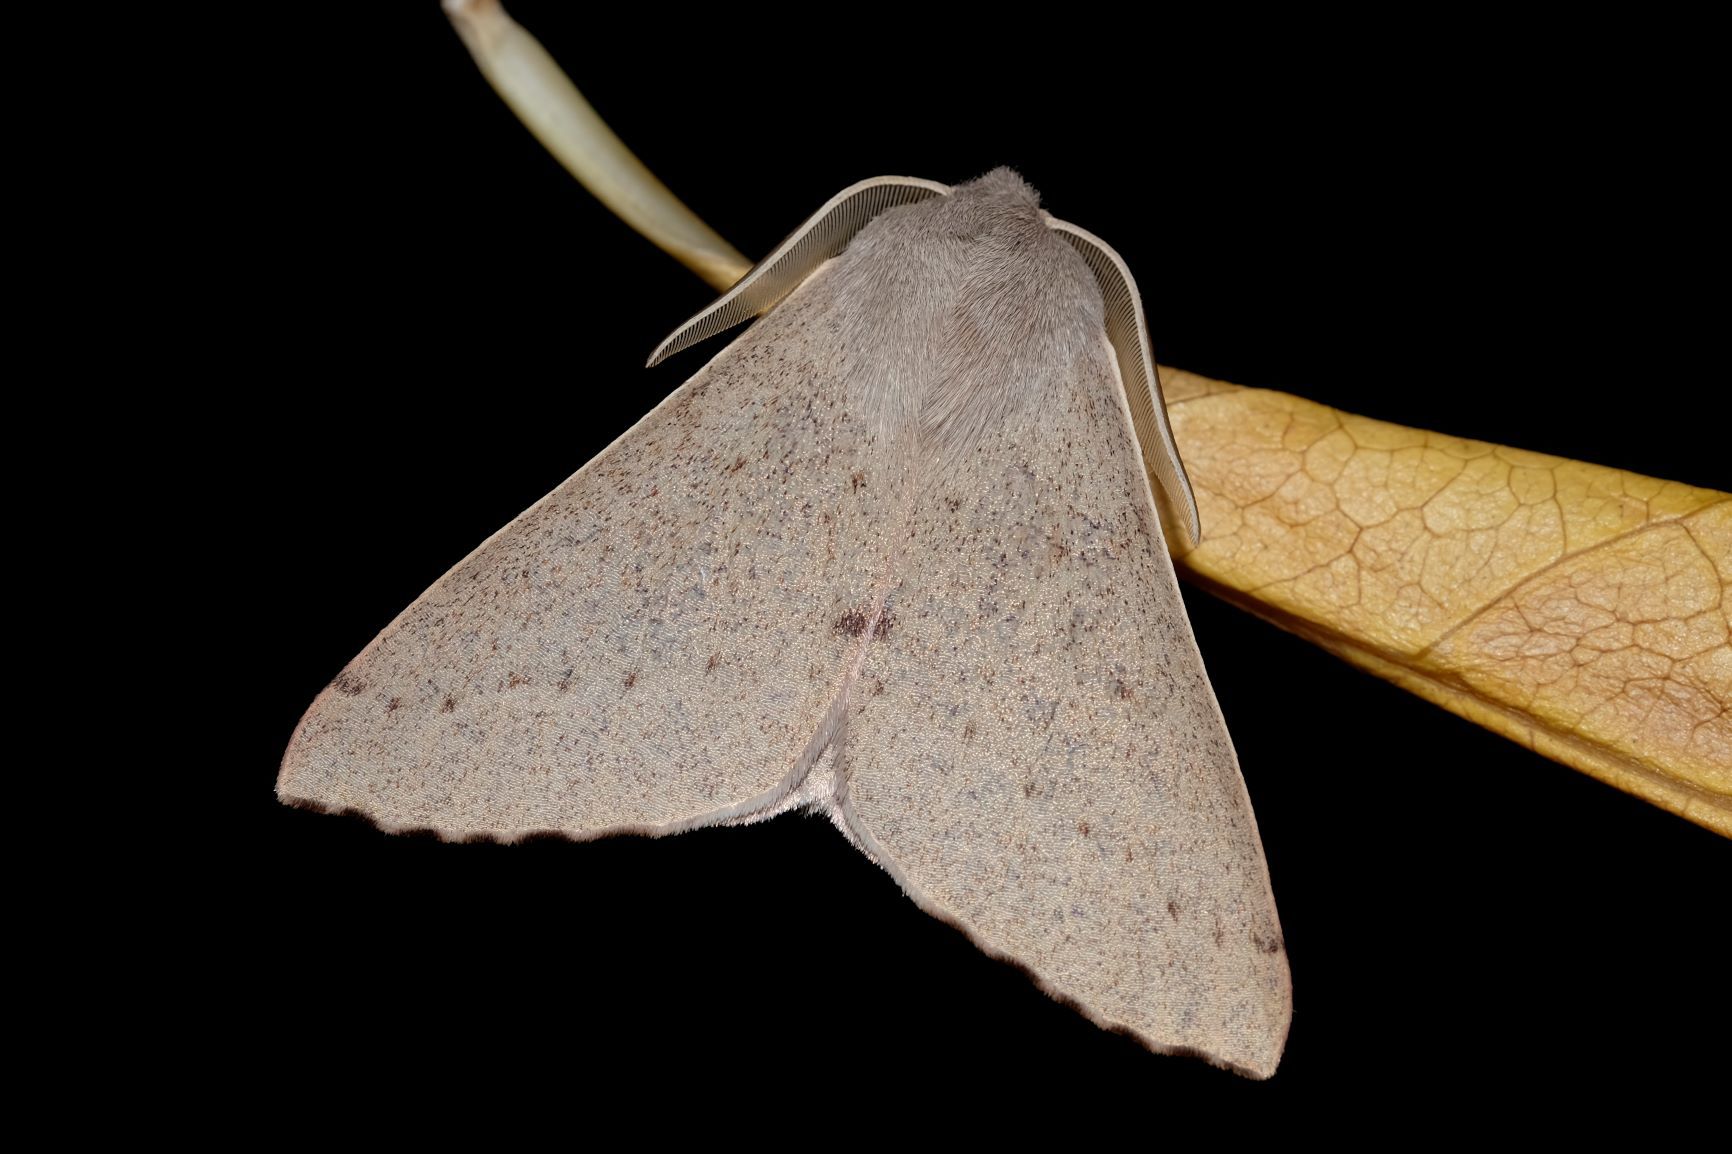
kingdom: Animalia
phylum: Arthropoda
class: Insecta
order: Lepidoptera
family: Geometridae
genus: Arhodia
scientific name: Arhodia lasiocamparia
